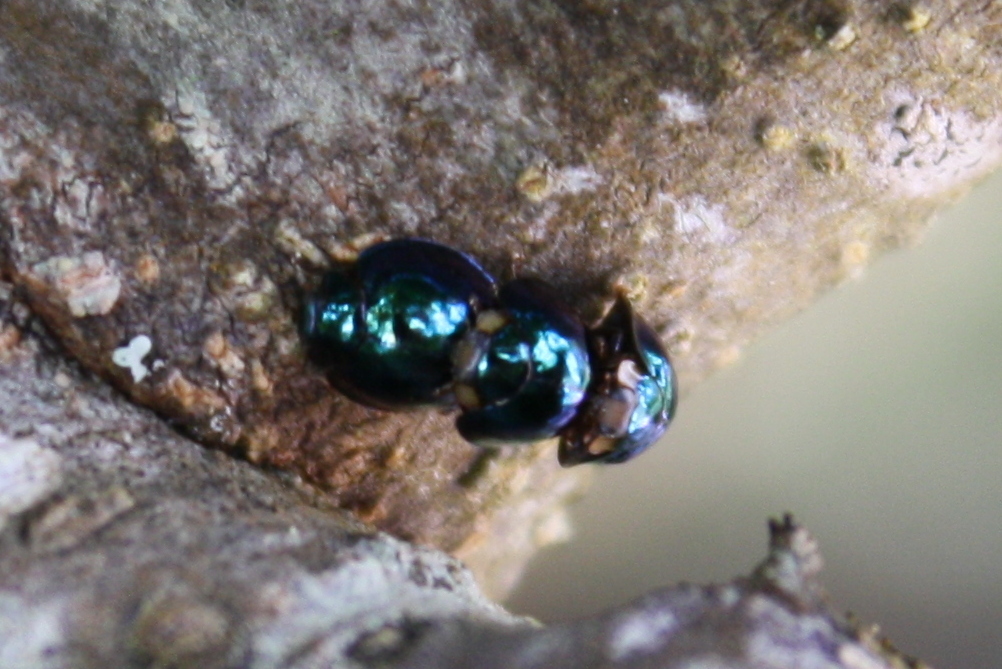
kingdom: Animalia
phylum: Arthropoda
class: Insecta
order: Coleoptera
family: Coccinellidae
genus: Halmus
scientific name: Halmus chalybeus
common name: Steel blue ladybird beetle
